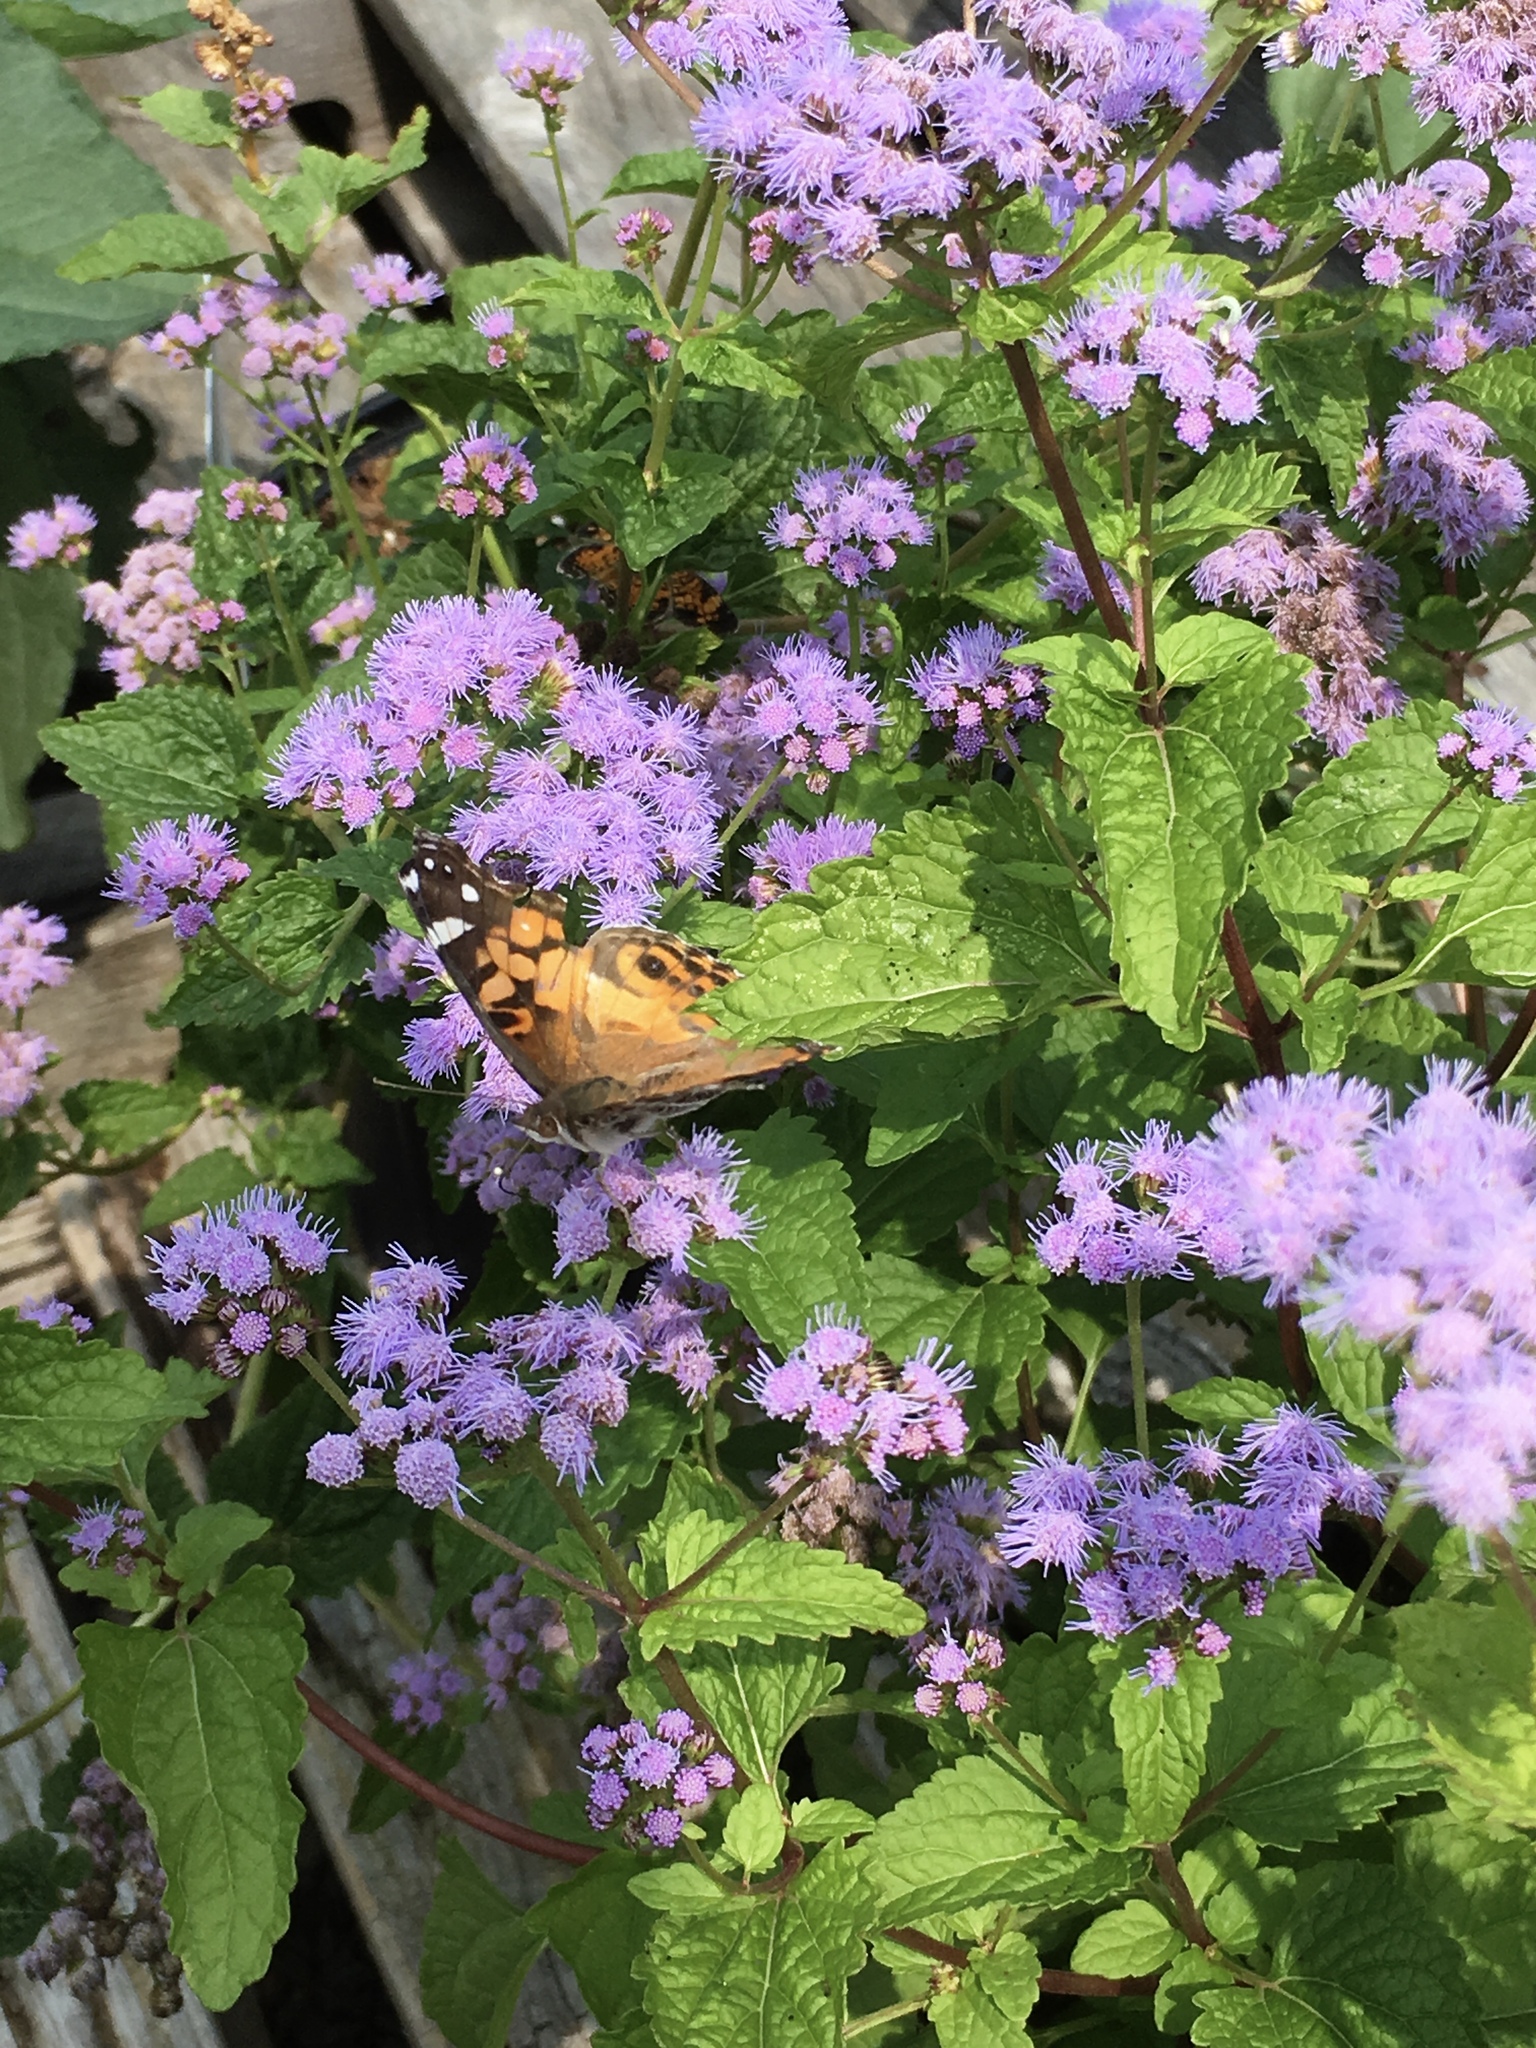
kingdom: Animalia
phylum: Arthropoda
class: Insecta
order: Lepidoptera
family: Nymphalidae
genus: Vanessa
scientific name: Vanessa virginiensis
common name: American lady
